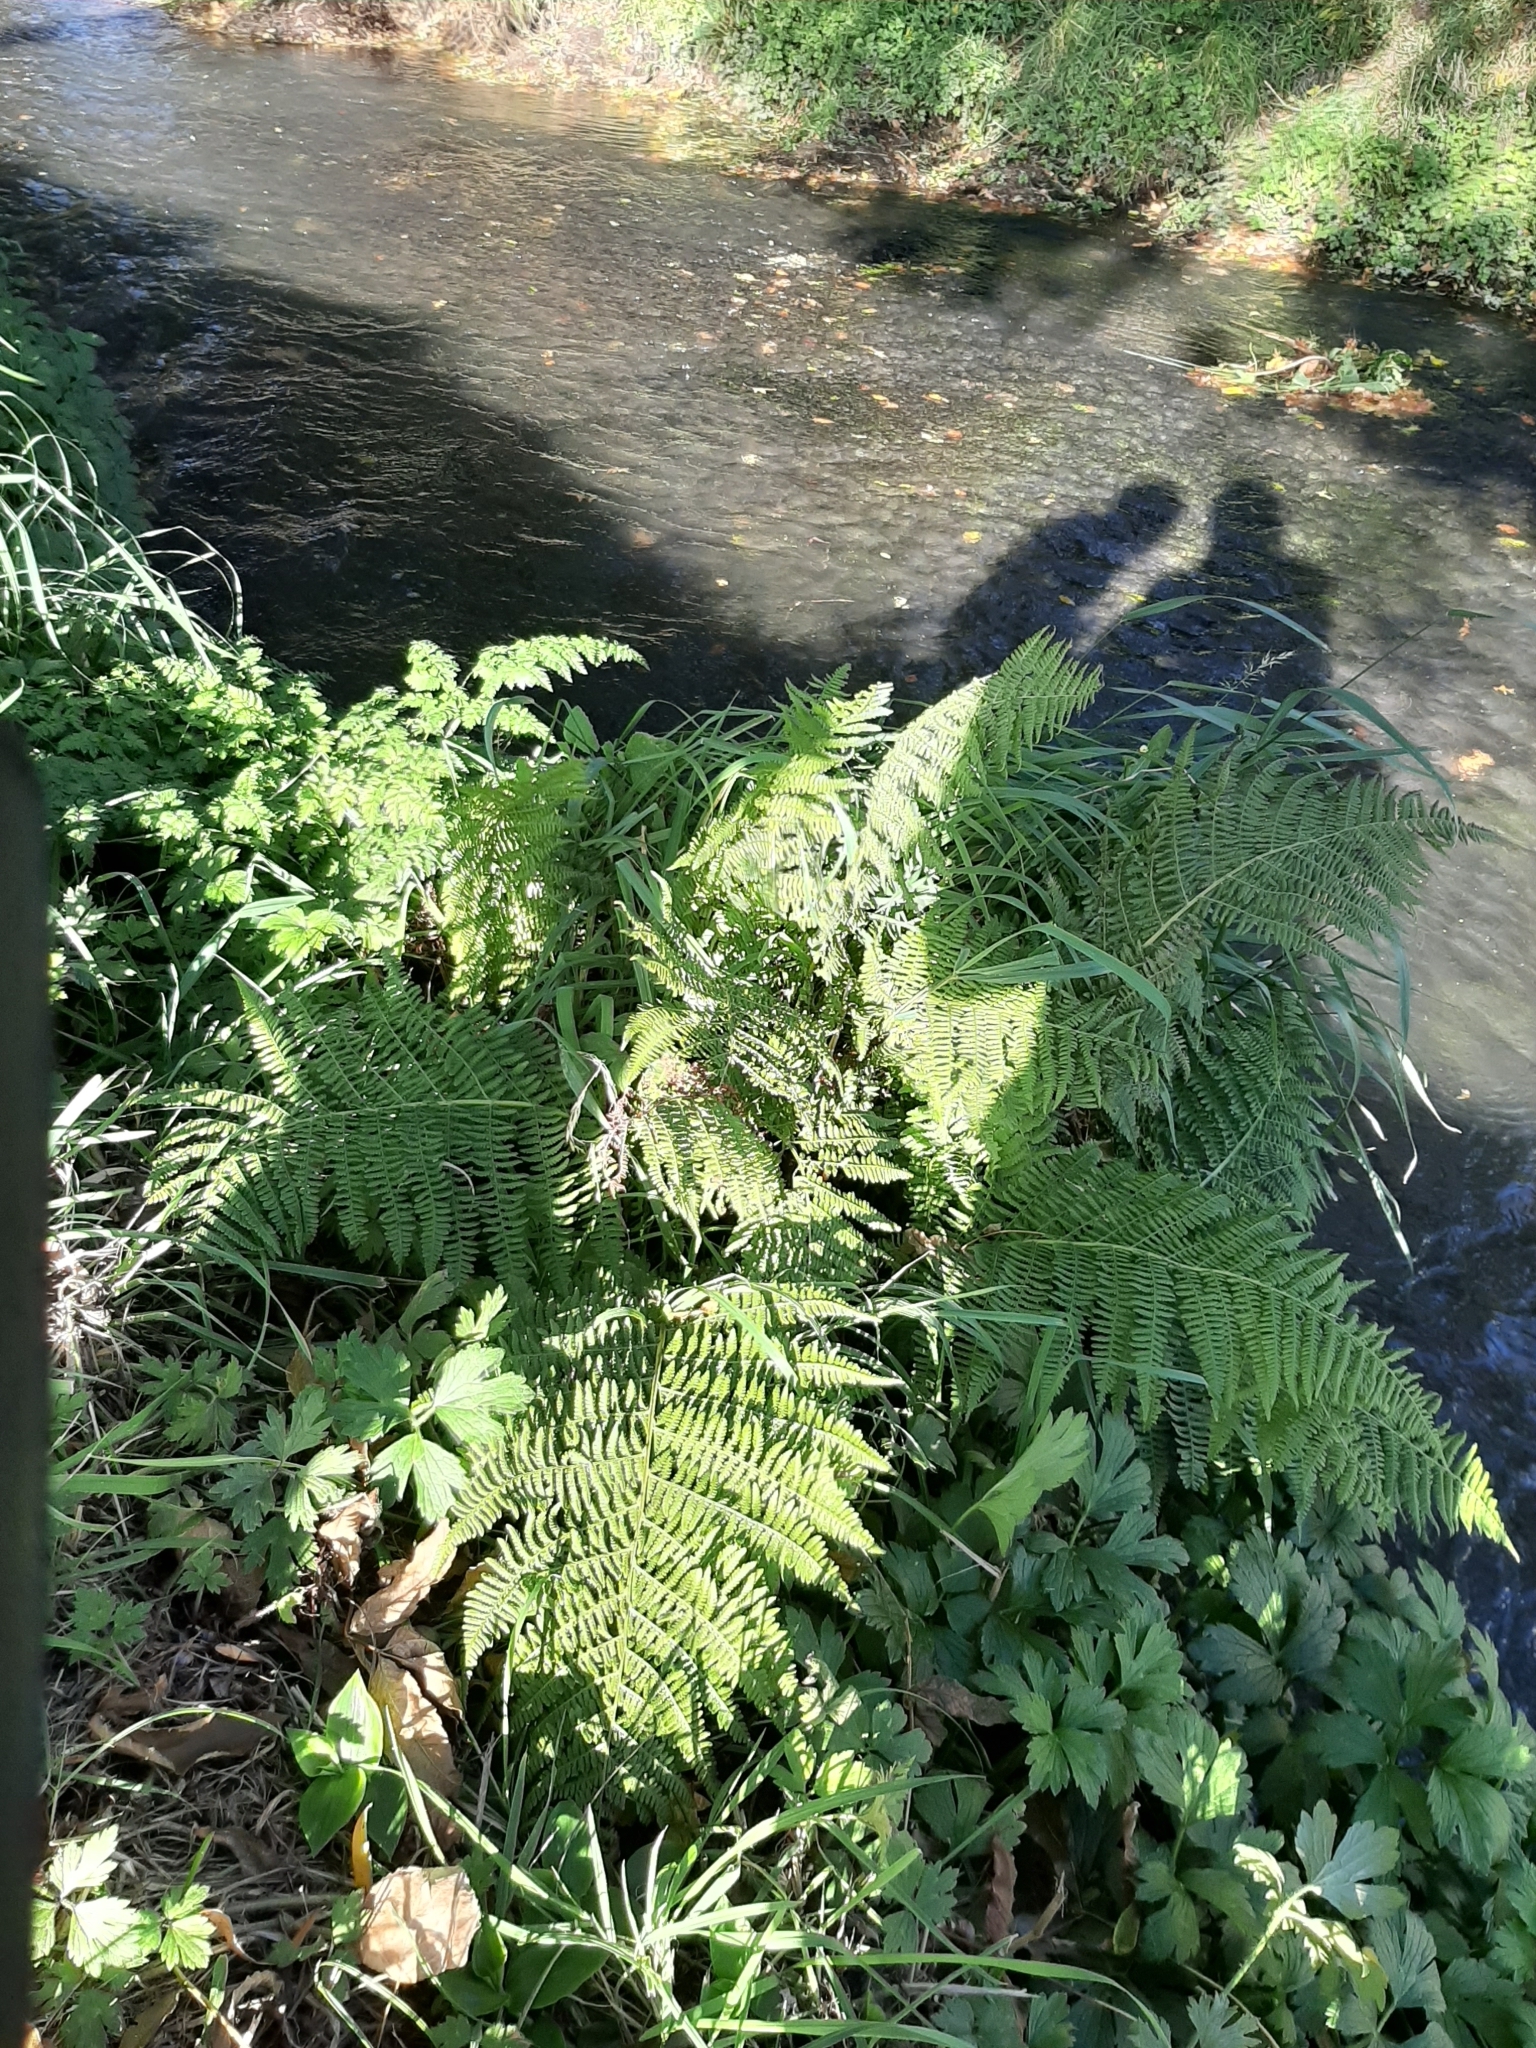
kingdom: Plantae
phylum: Tracheophyta
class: Polypodiopsida
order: Polypodiales
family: Athyriaceae
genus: Athyrium
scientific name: Athyrium filix-femina
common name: Lady fern
